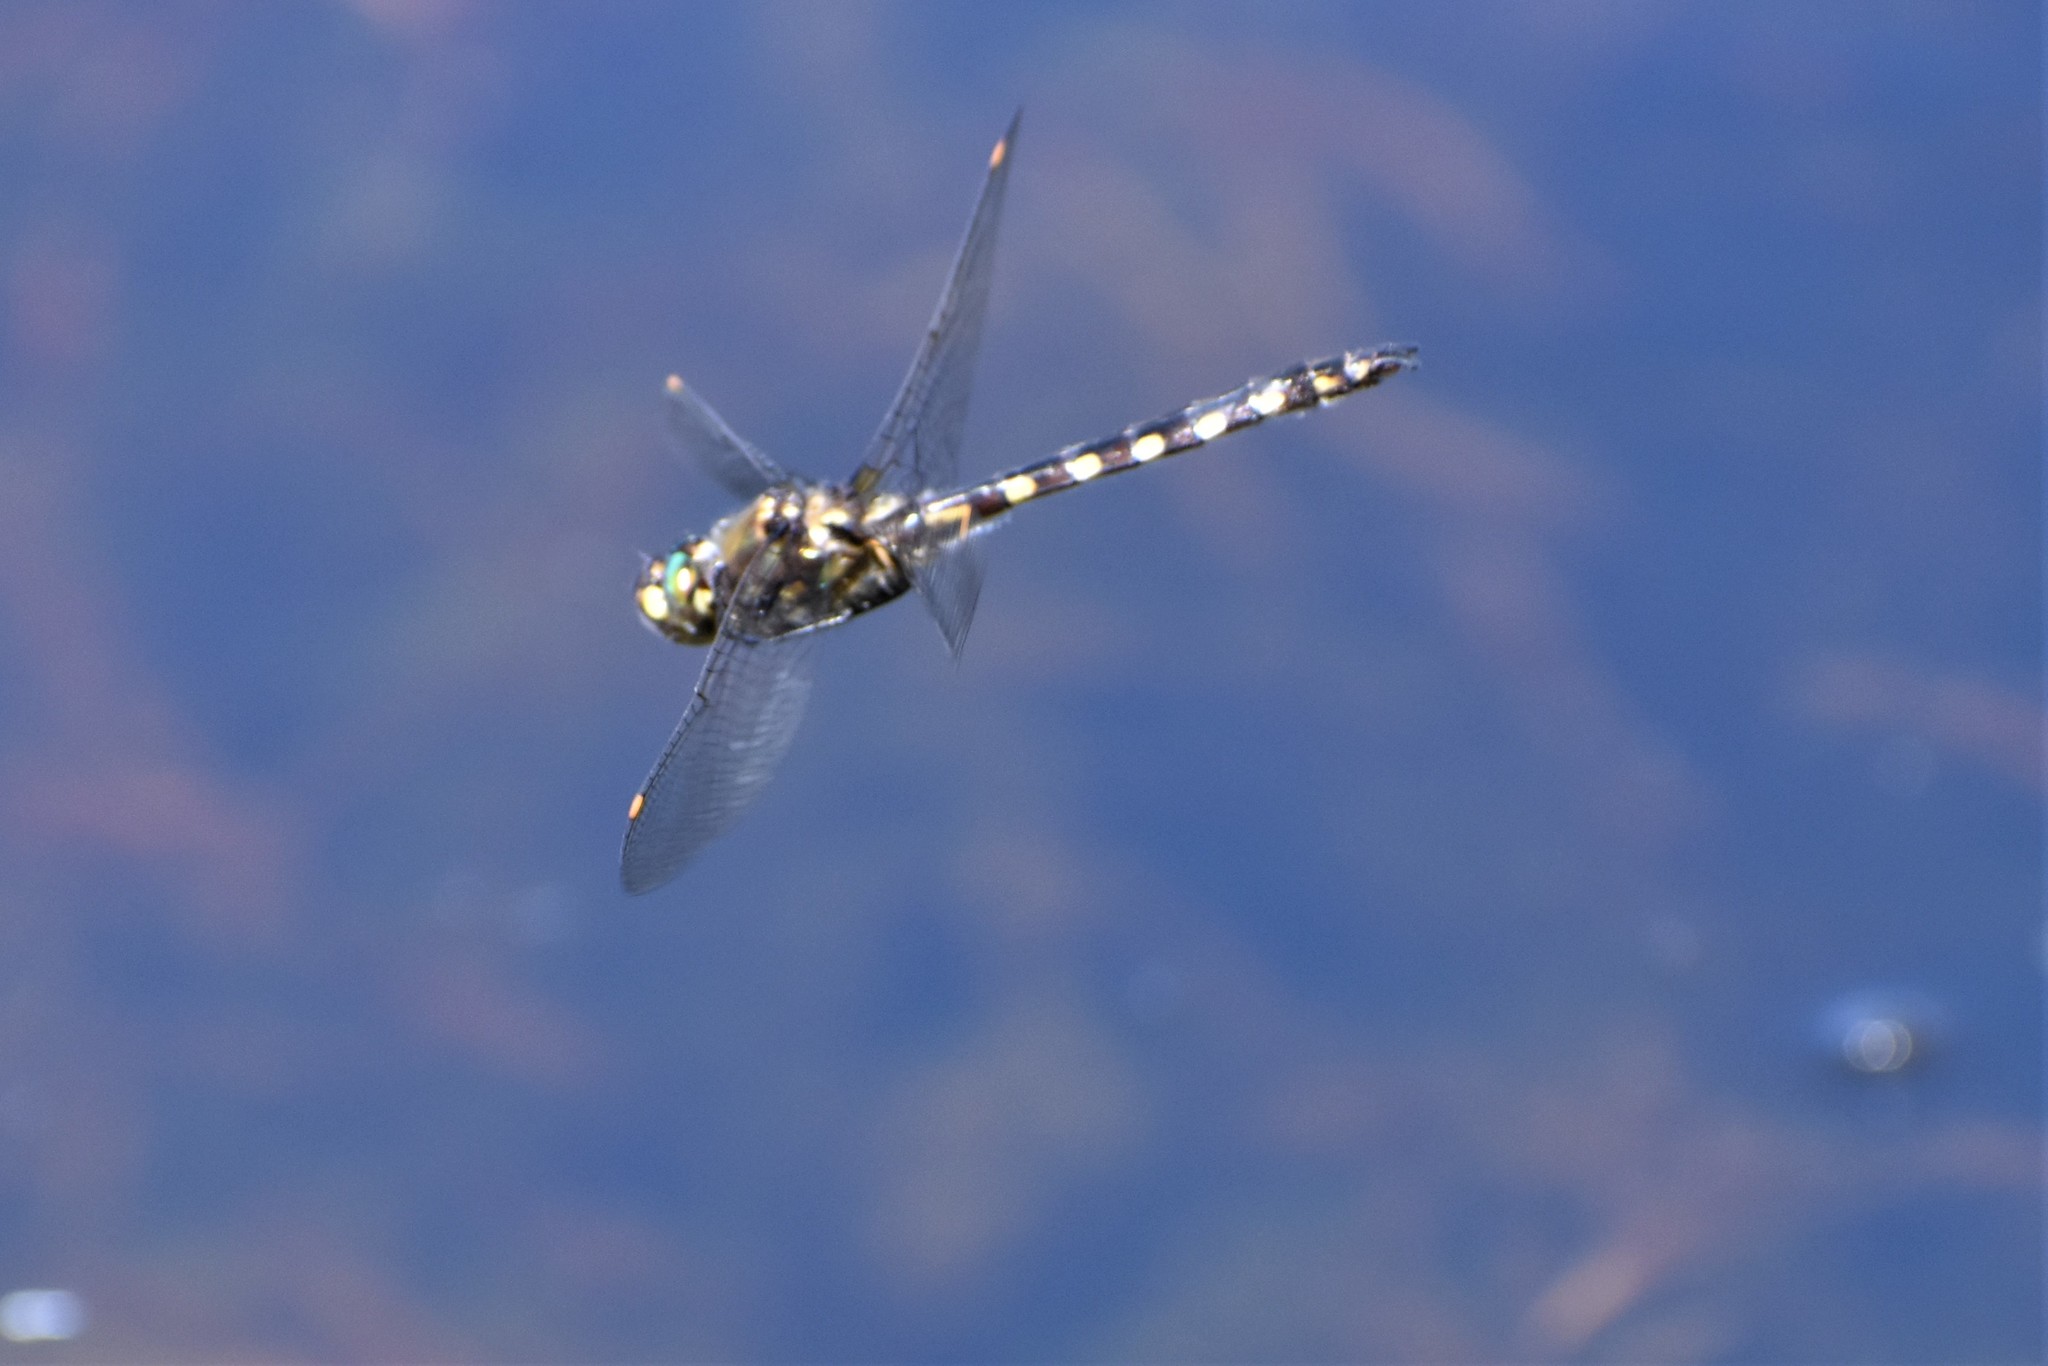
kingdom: Animalia
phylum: Arthropoda
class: Insecta
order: Odonata
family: Corduliidae
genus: Procordulia
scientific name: Procordulia grayi
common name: Yellow spotted dragonfly
